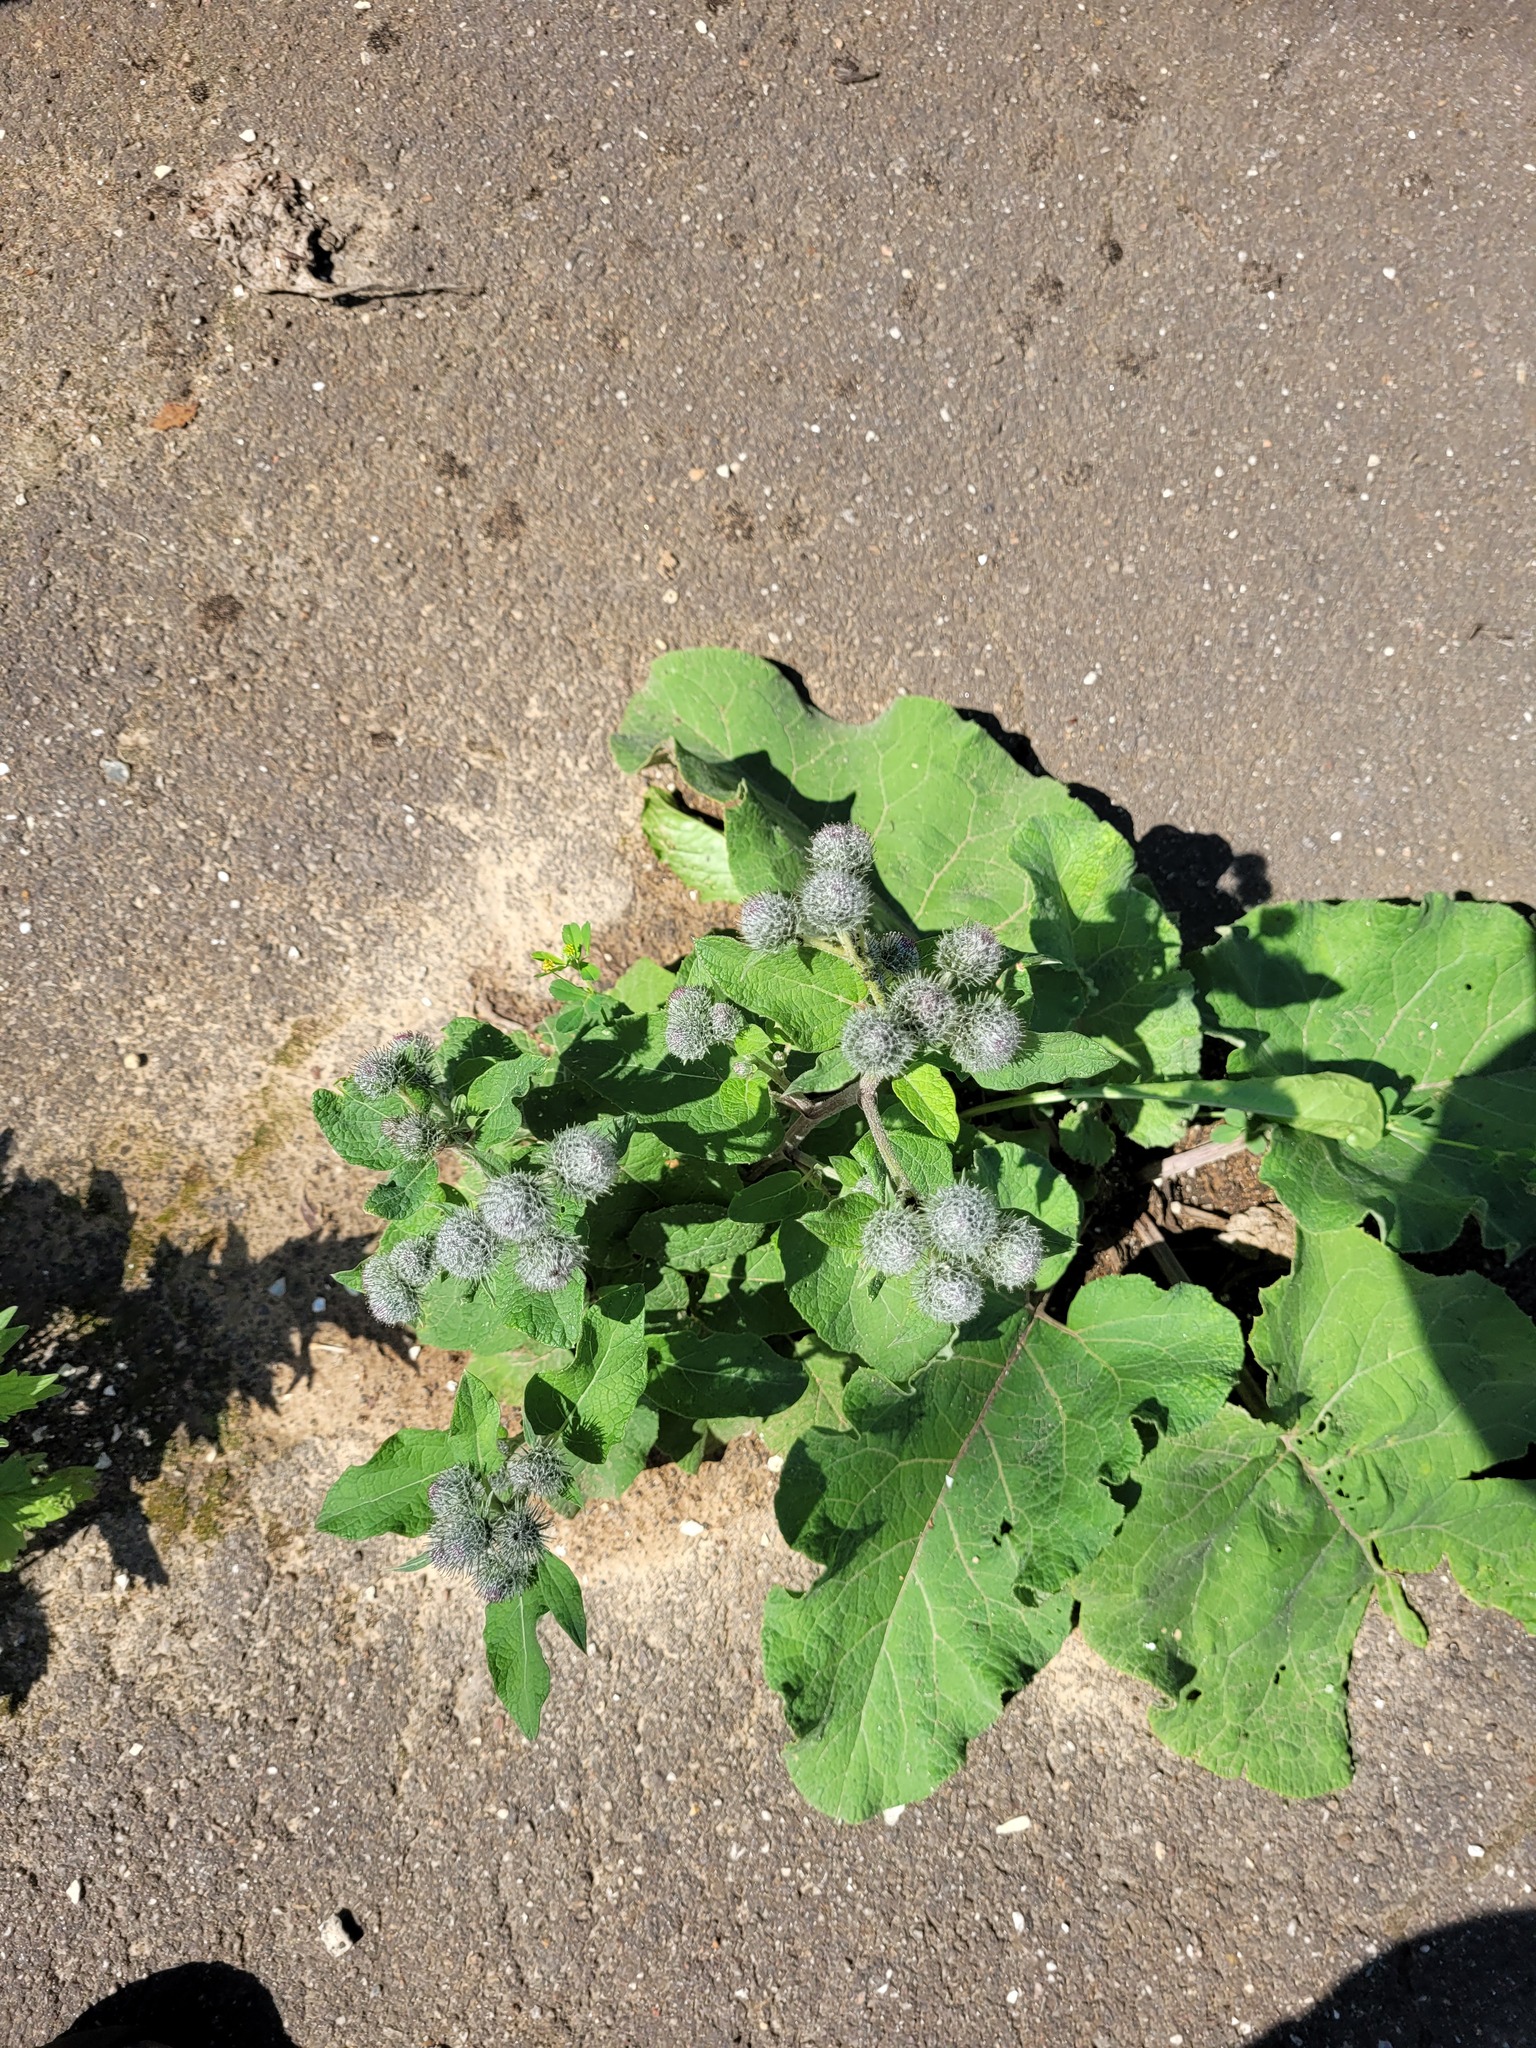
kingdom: Plantae
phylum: Tracheophyta
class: Magnoliopsida
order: Asterales
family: Asteraceae
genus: Arctium
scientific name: Arctium tomentosum
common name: Woolly burdock
